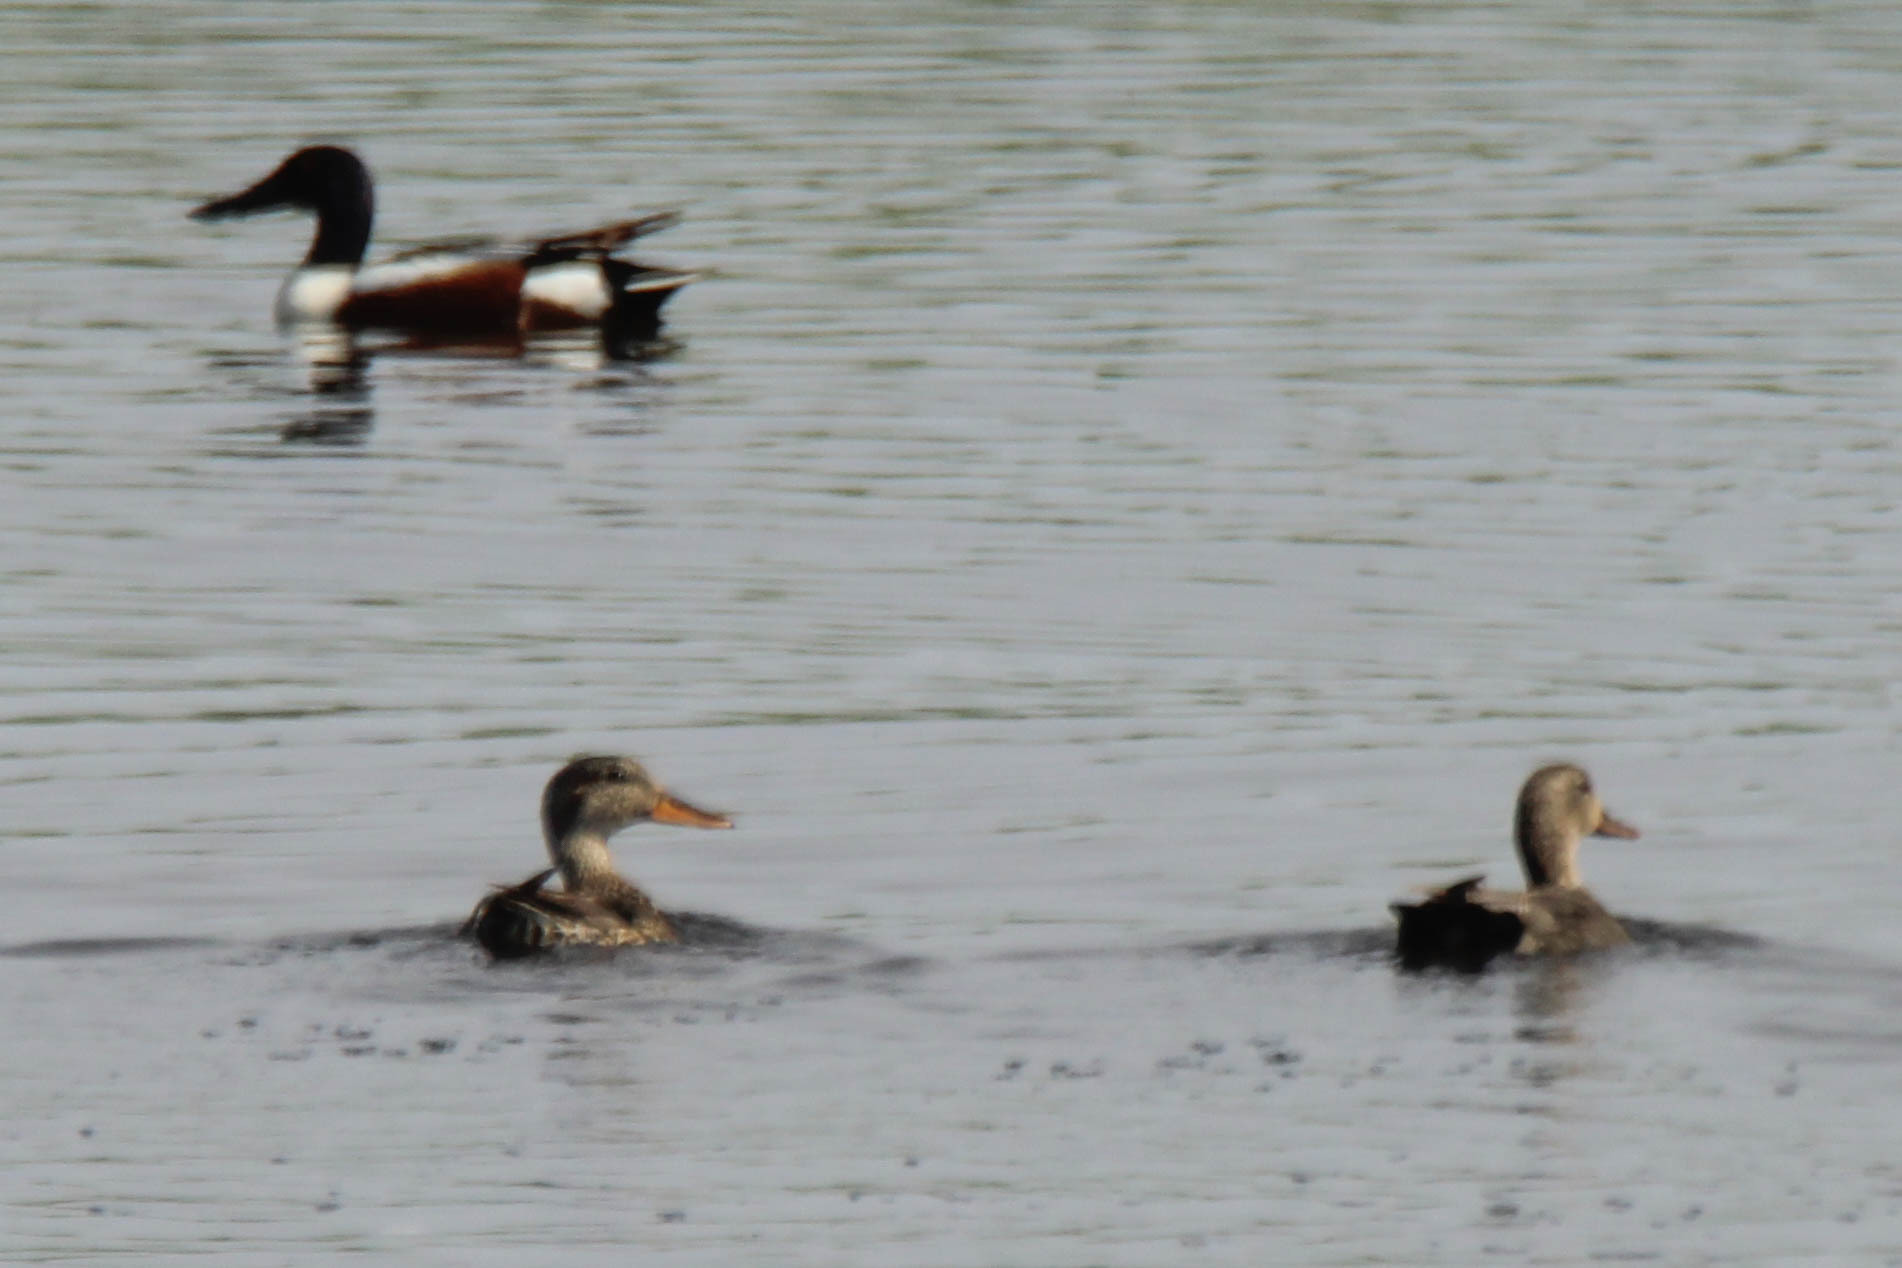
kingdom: Animalia
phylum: Chordata
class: Aves
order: Anseriformes
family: Anatidae
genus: Mareca
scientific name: Mareca strepera
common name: Gadwall
